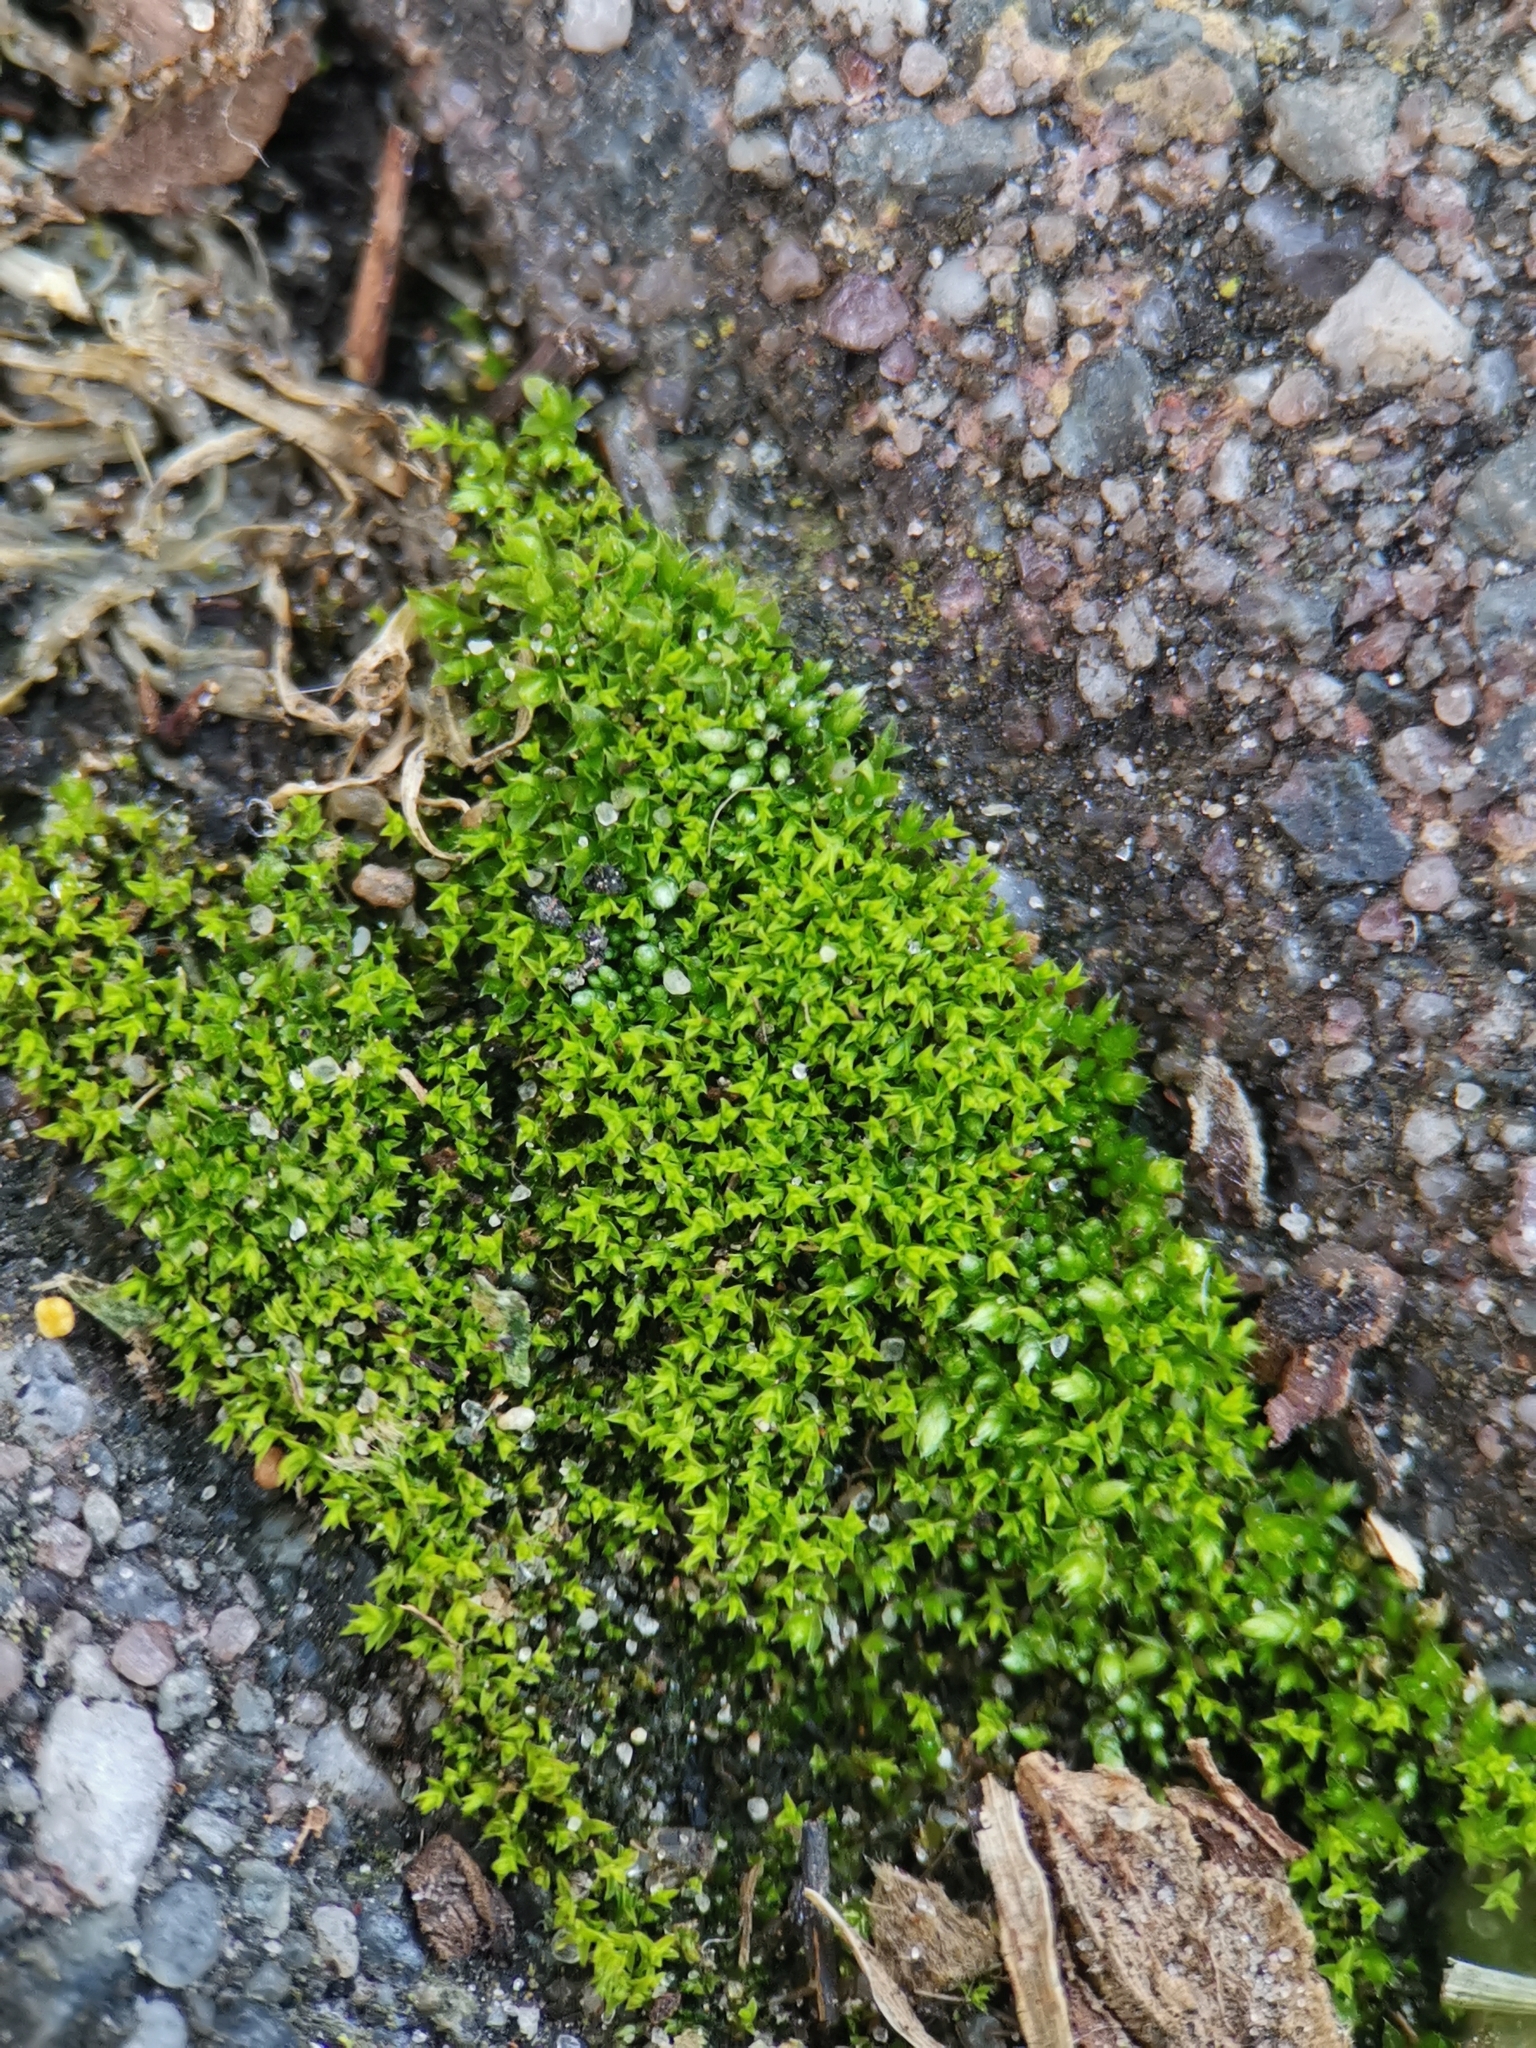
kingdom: Plantae
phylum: Bryophyta
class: Bryopsida
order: Pottiales
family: Pottiaceae
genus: Pseudocrossidium
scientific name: Pseudocrossidium hornschuchianum
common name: Hornschuch's beard-moss
